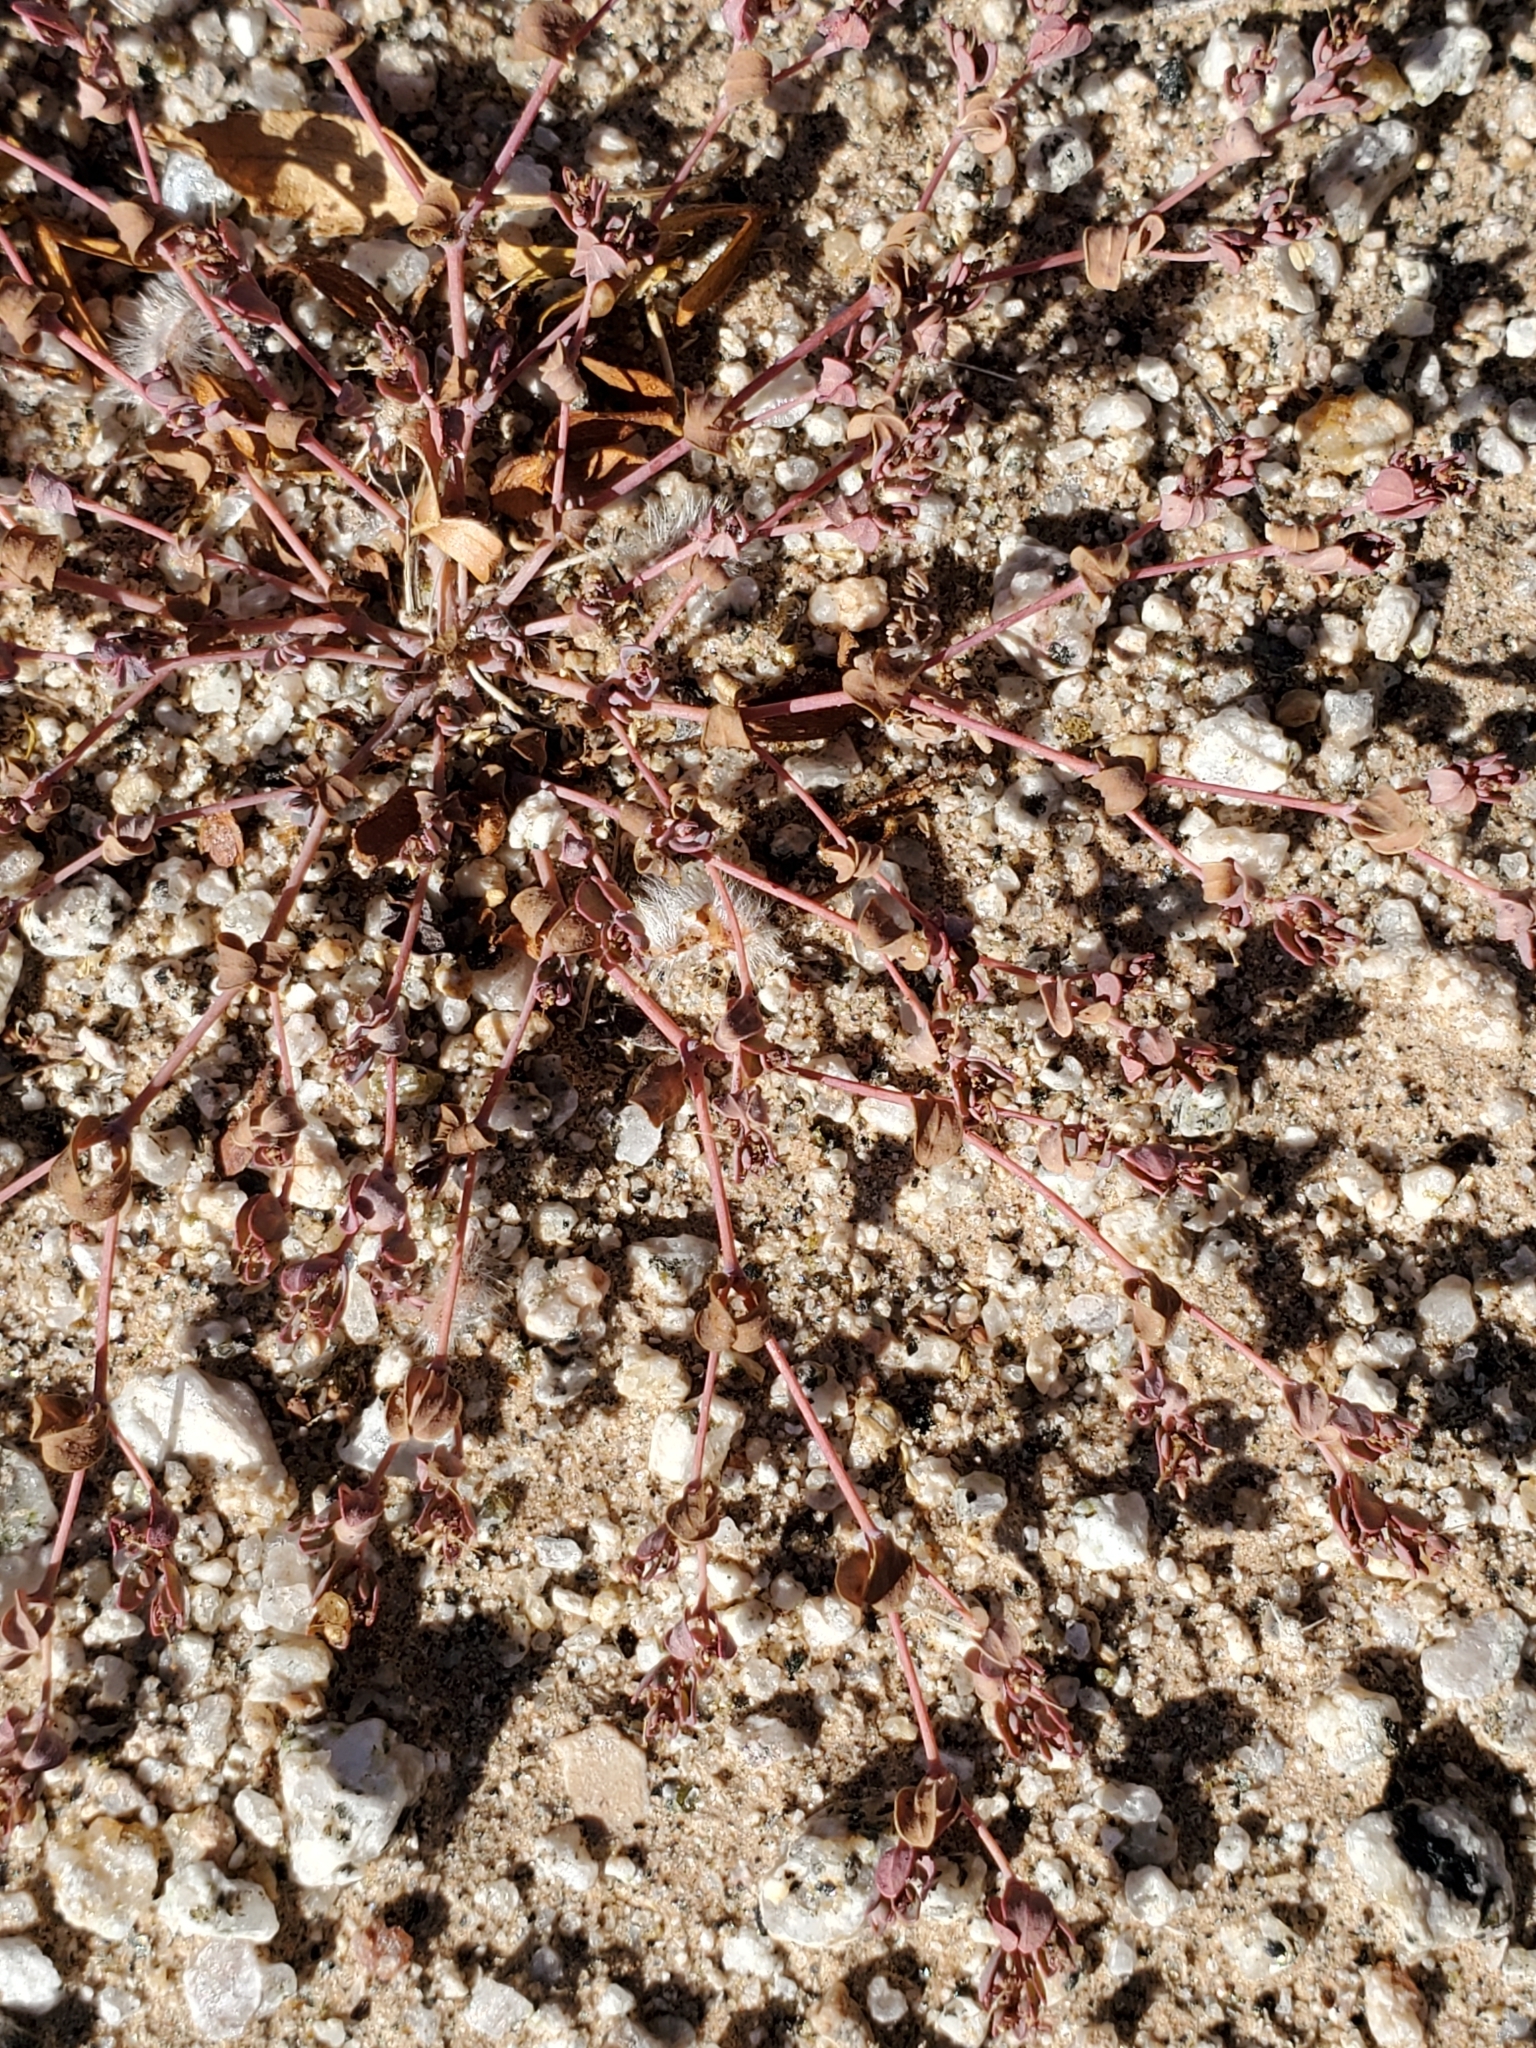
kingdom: Plantae
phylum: Tracheophyta
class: Magnoliopsida
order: Malpighiales
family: Euphorbiaceae
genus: Euphorbia
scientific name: Euphorbia polycarpa
